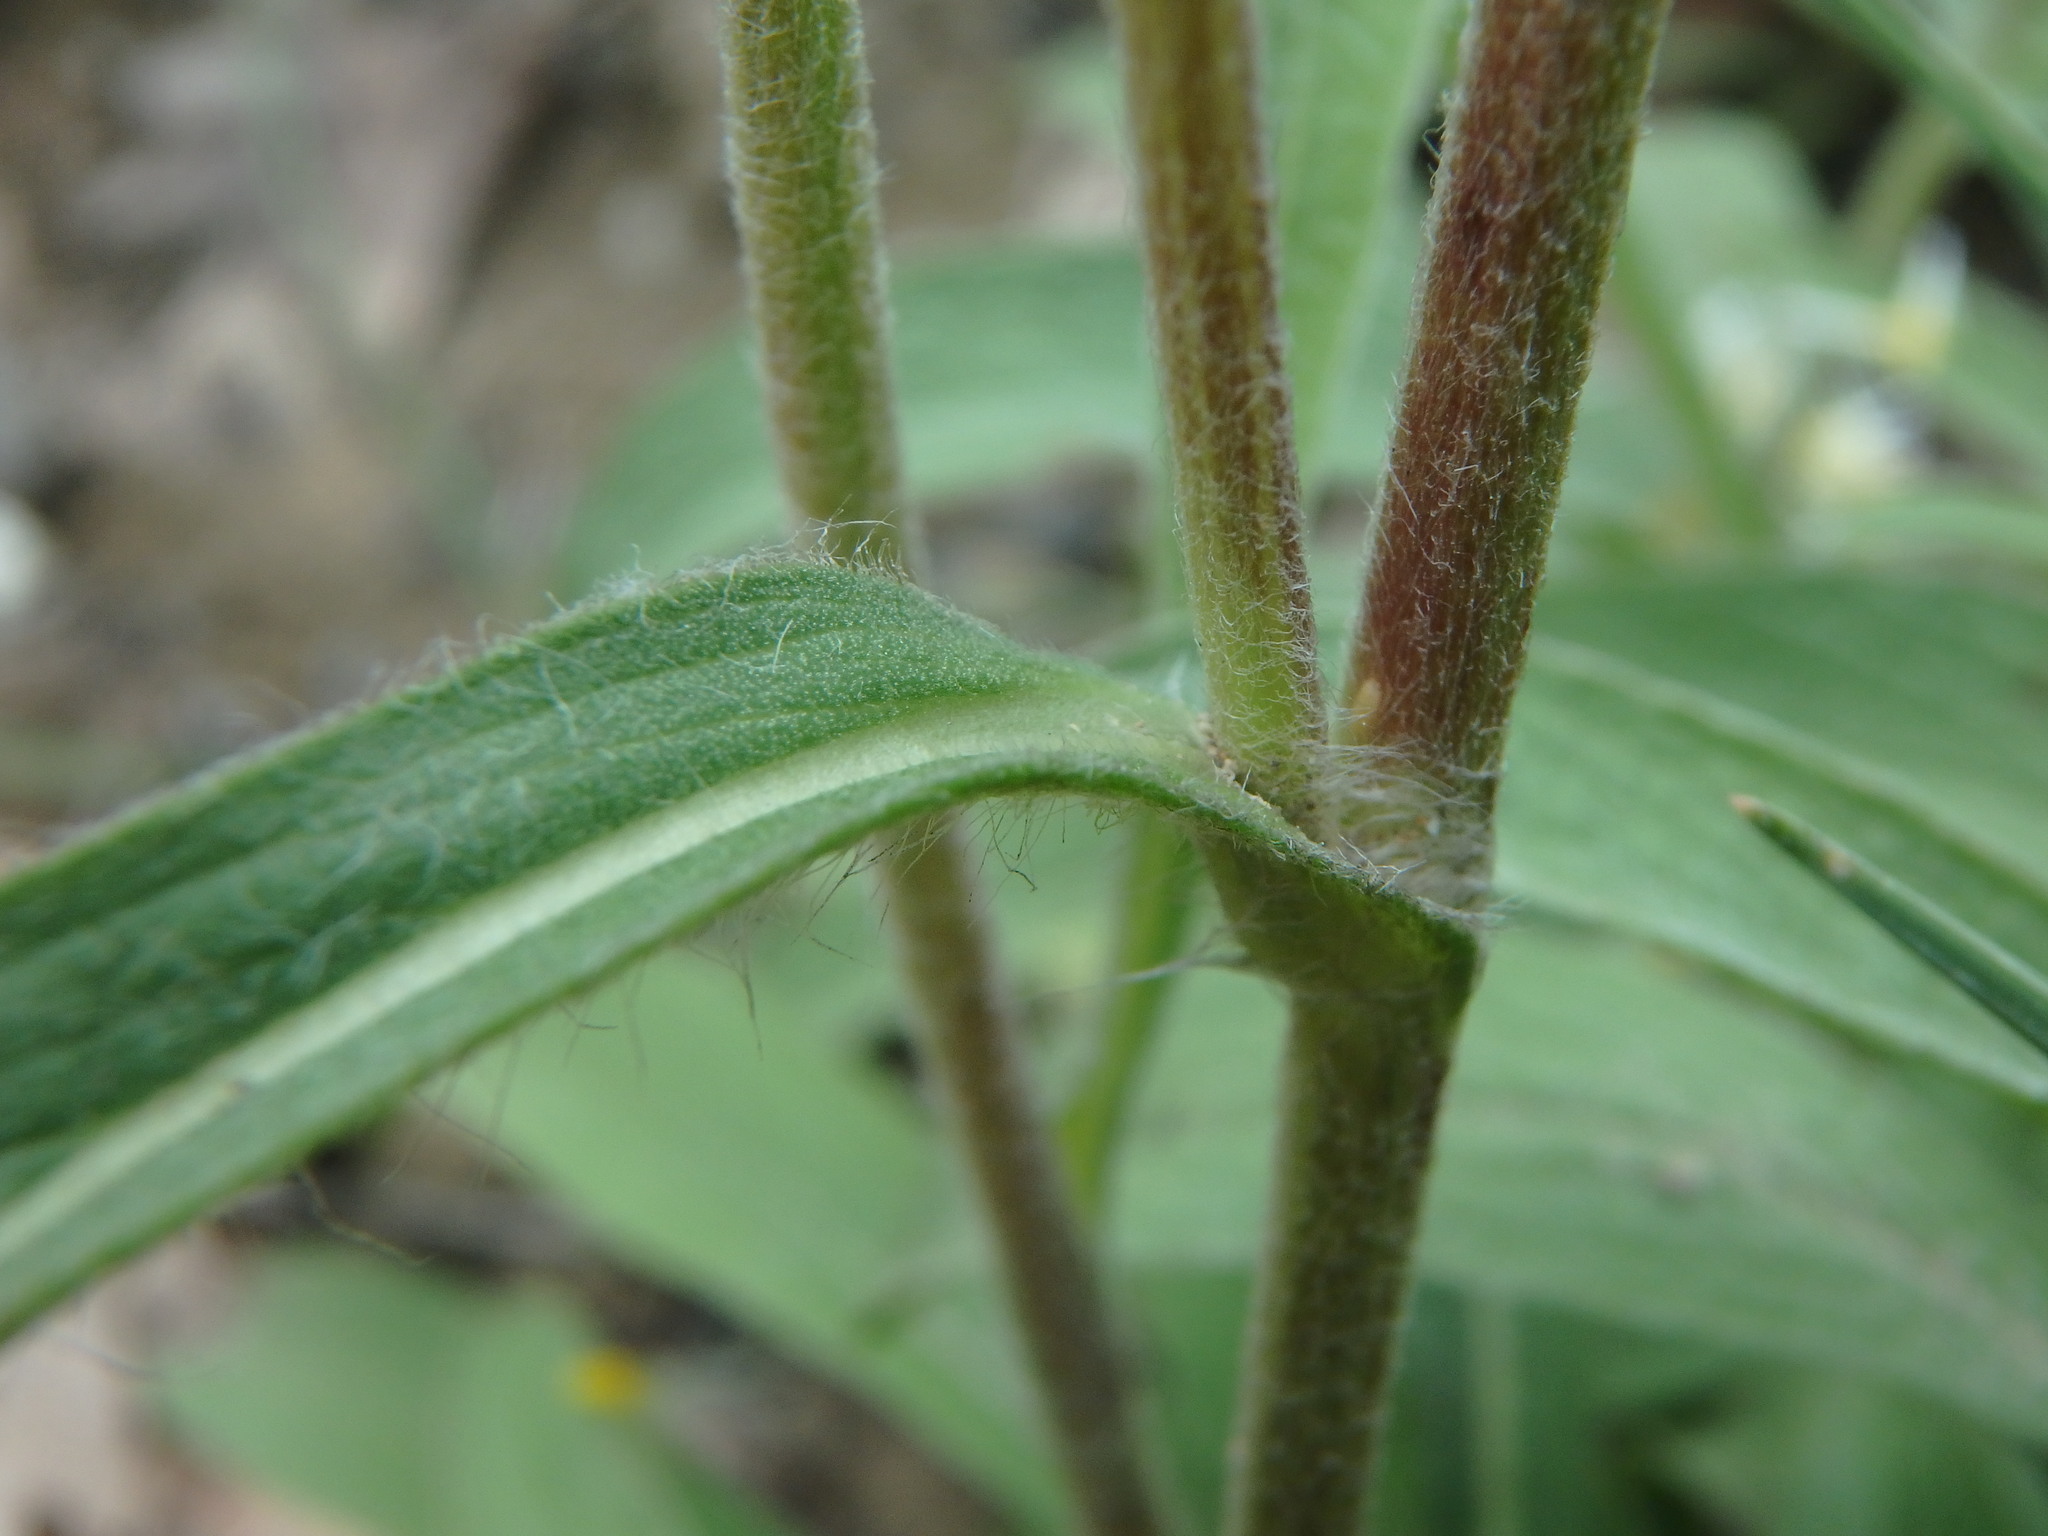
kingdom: Plantae
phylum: Tracheophyta
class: Magnoliopsida
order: Asterales
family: Asteraceae
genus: Pentanema
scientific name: Pentanema montanum
